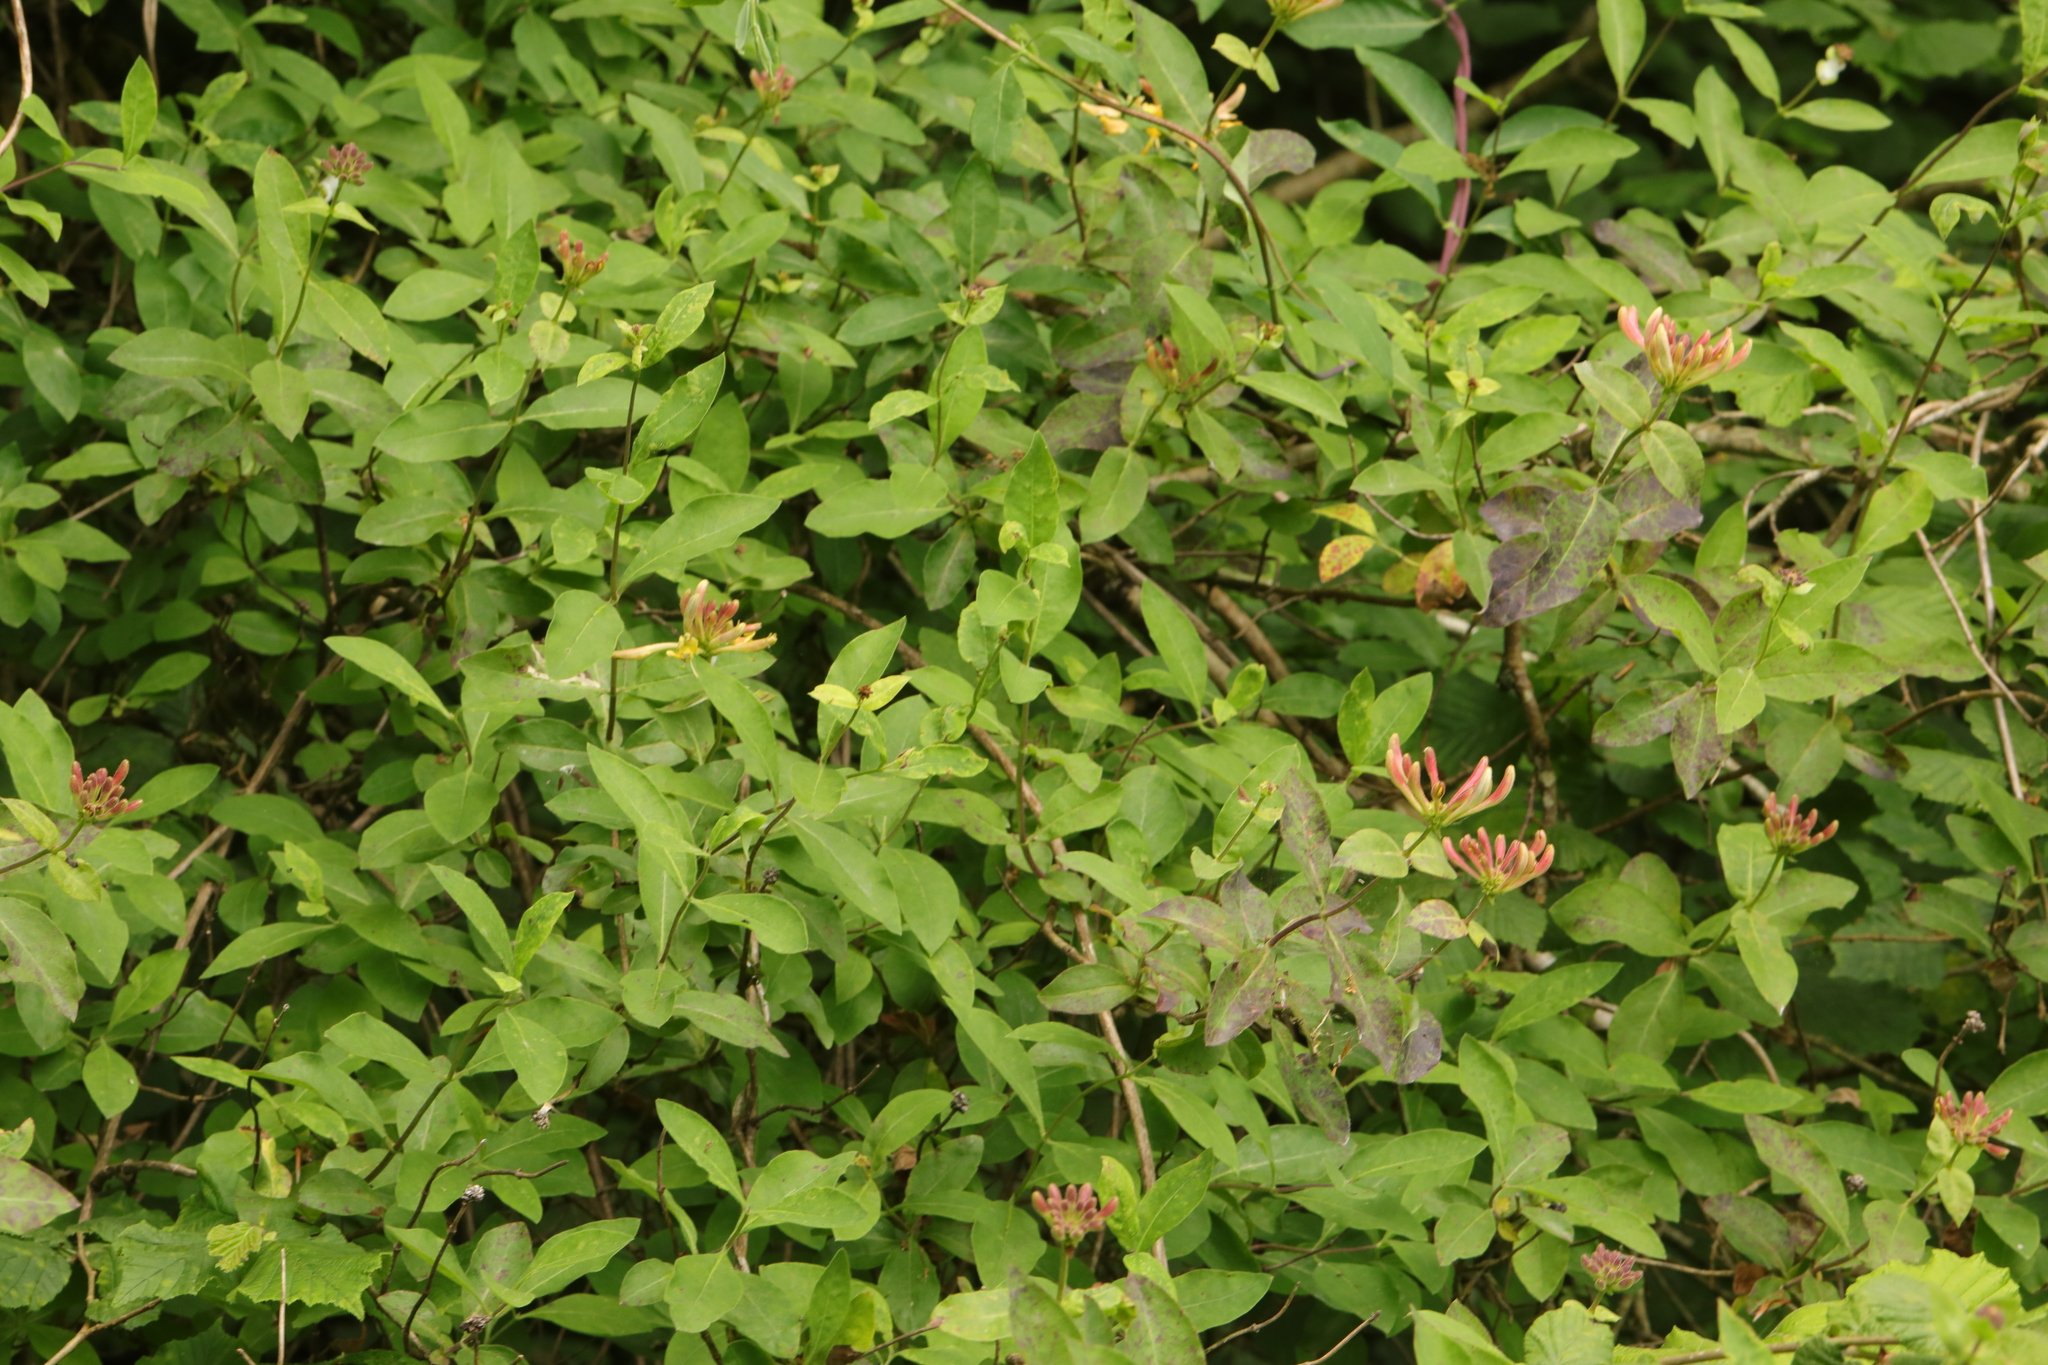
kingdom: Plantae
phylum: Tracheophyta
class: Magnoliopsida
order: Dipsacales
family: Caprifoliaceae
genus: Lonicera
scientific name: Lonicera periclymenum
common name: European honeysuckle
